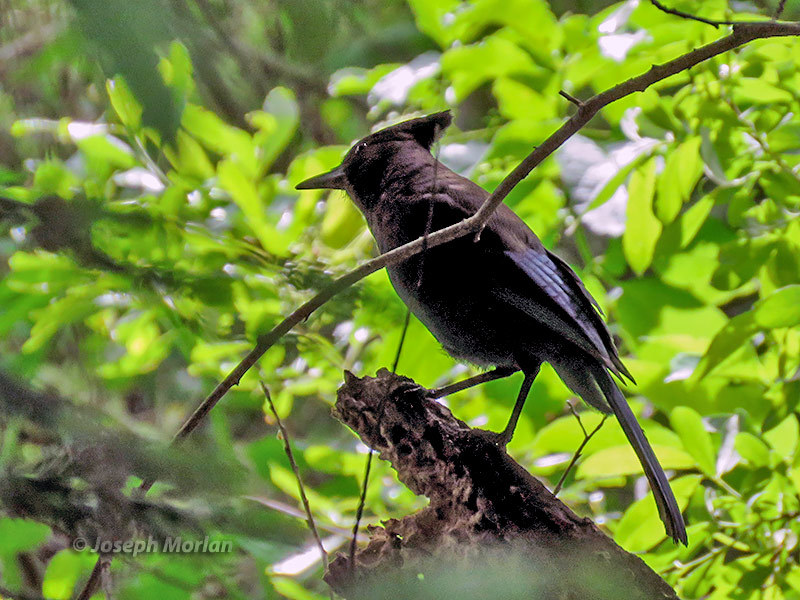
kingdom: Animalia
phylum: Chordata
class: Aves
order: Passeriformes
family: Corvidae
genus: Cyanocitta
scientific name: Cyanocitta stelleri
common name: Steller's jay
